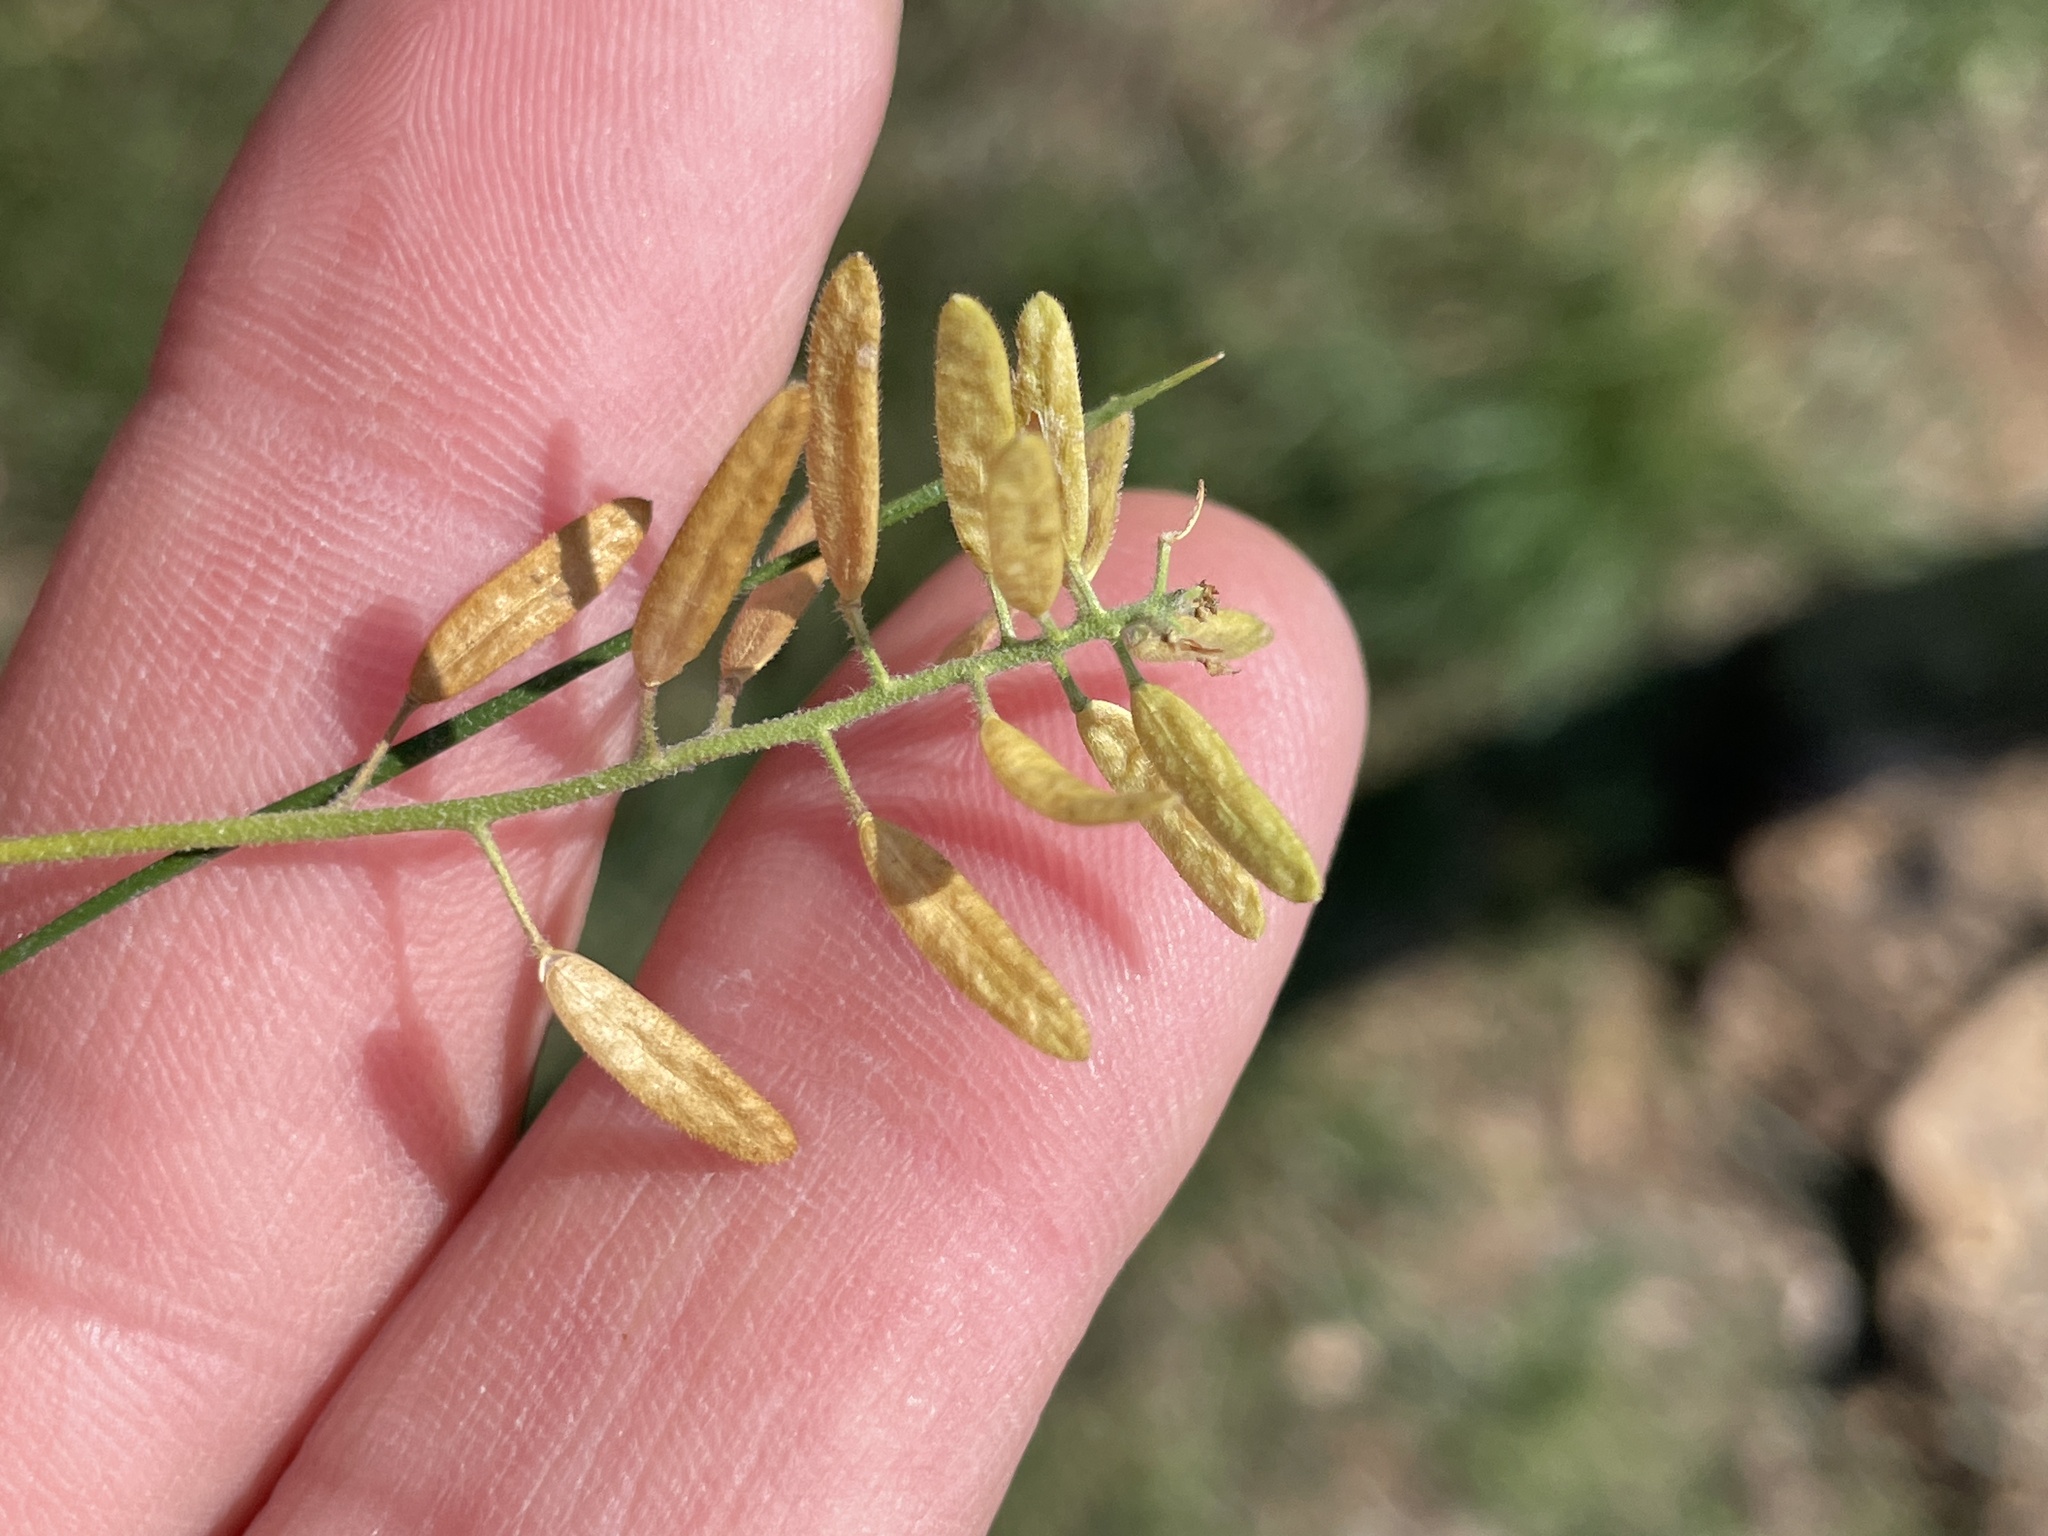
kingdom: Plantae
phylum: Tracheophyta
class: Magnoliopsida
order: Brassicales
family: Brassicaceae
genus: Tomostima
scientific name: Tomostima cuneifolia
